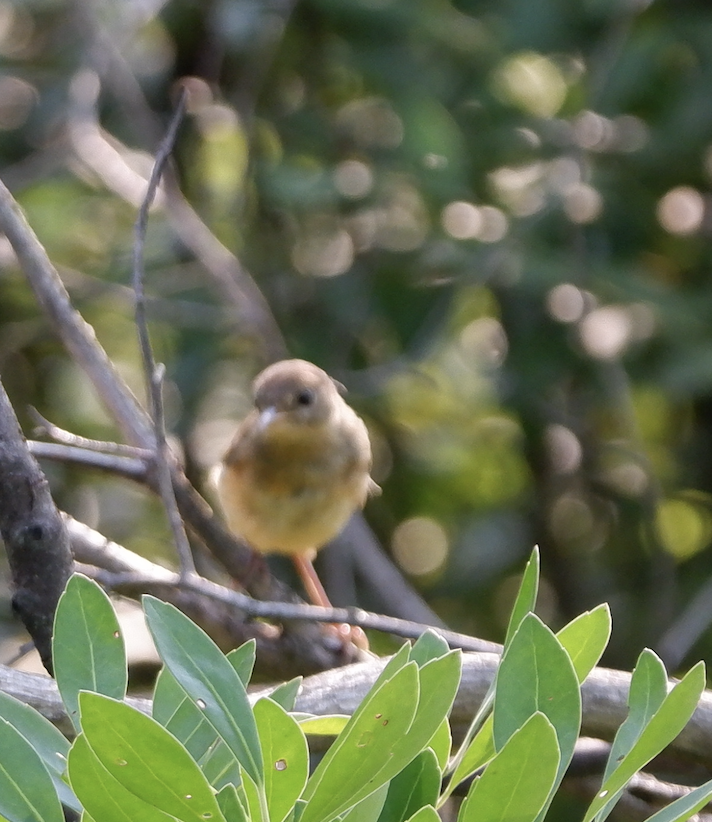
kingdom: Animalia
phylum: Chordata
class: Aves
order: Passeriformes
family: Parulidae
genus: Geothlypis
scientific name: Geothlypis trichas
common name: Common yellowthroat
